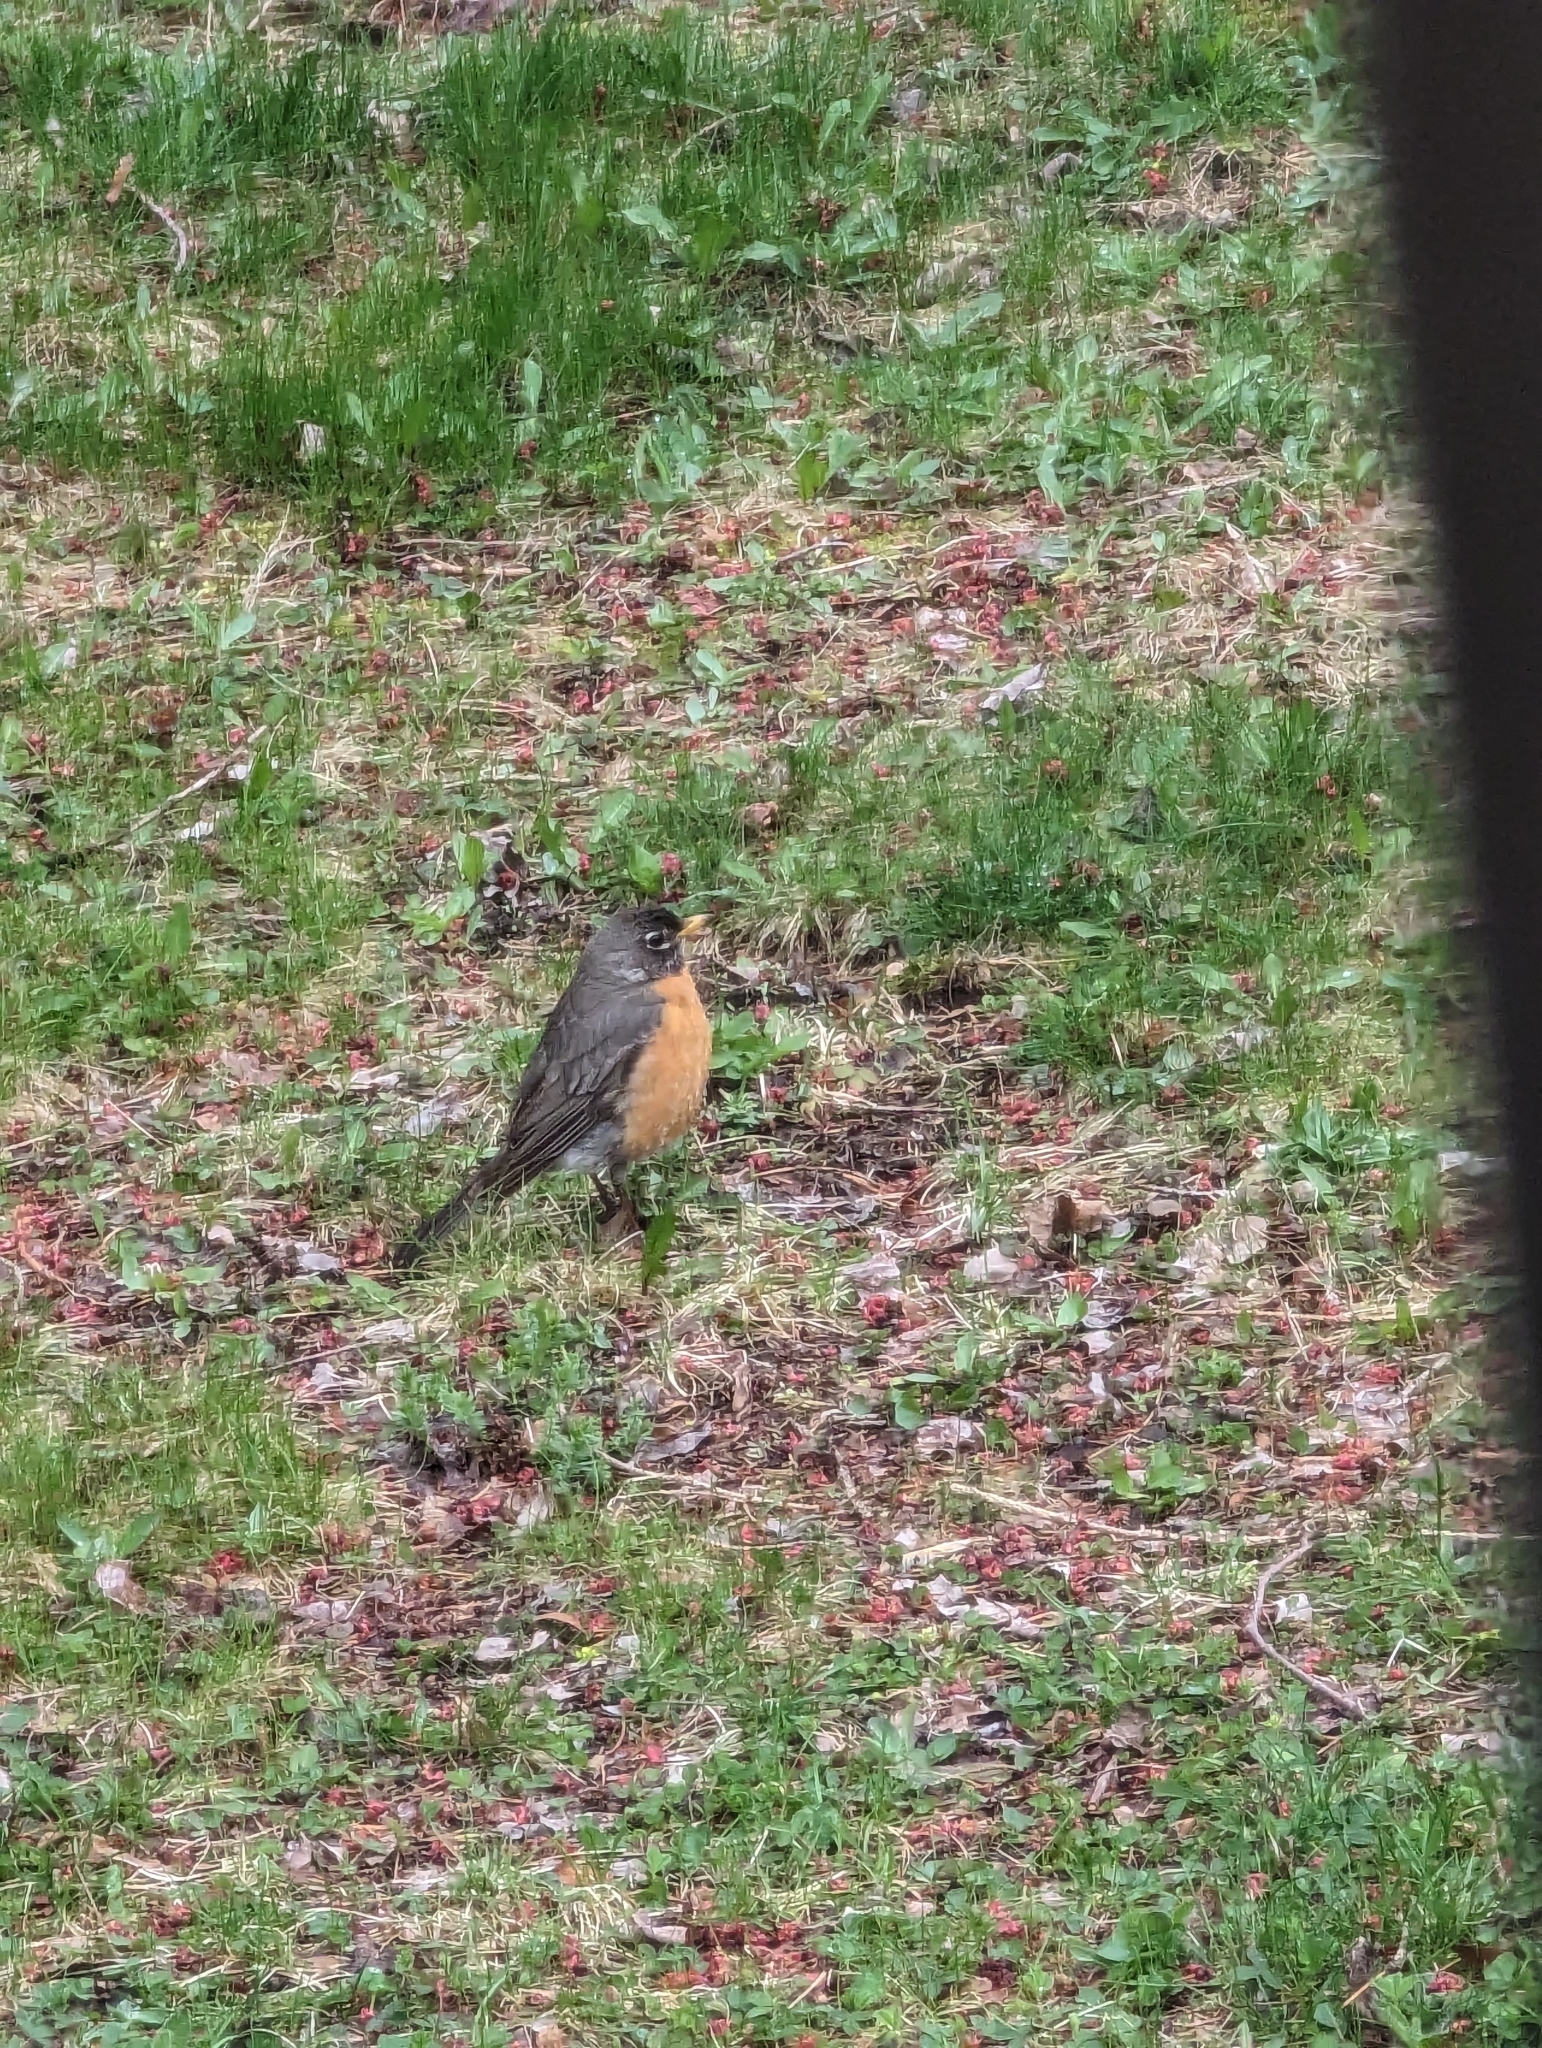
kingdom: Animalia
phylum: Chordata
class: Aves
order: Passeriformes
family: Turdidae
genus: Turdus
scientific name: Turdus migratorius
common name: American robin
